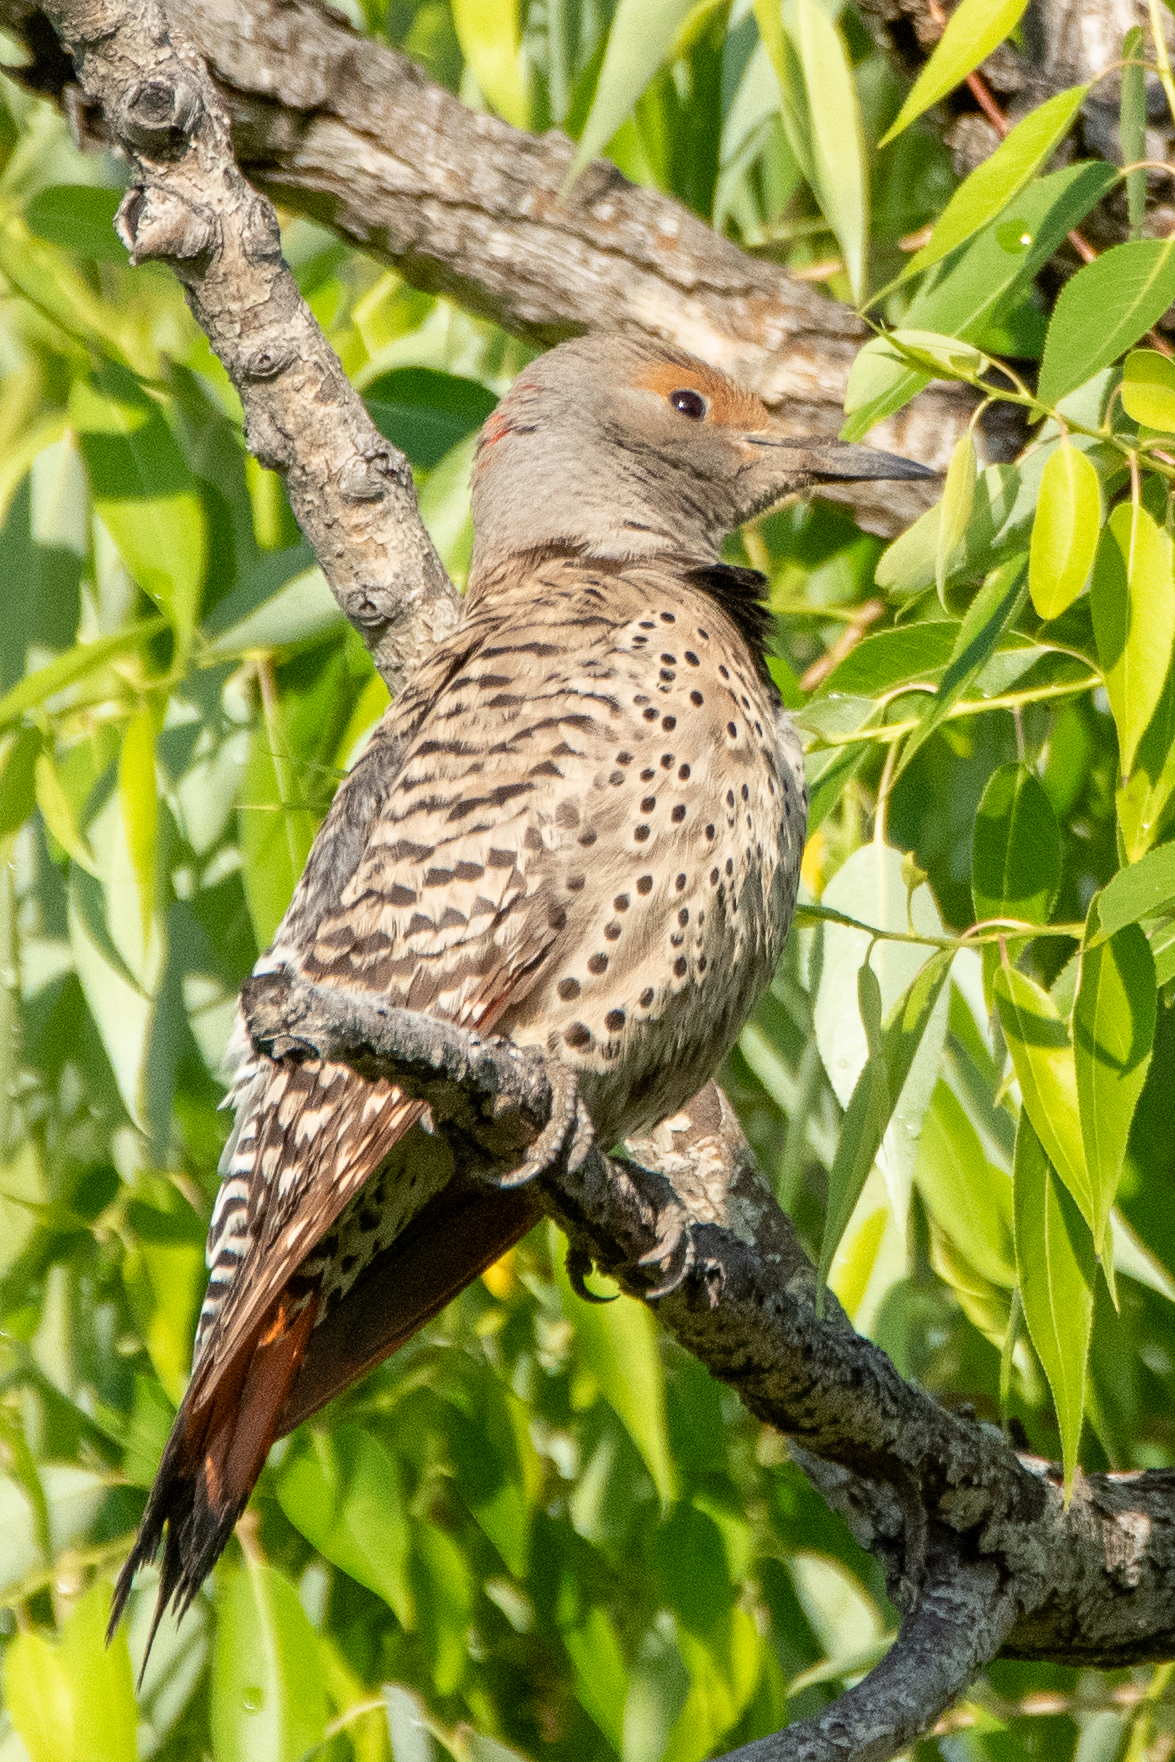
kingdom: Animalia
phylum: Chordata
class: Aves
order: Piciformes
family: Picidae
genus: Colaptes
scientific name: Colaptes auratus
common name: Northern flicker
